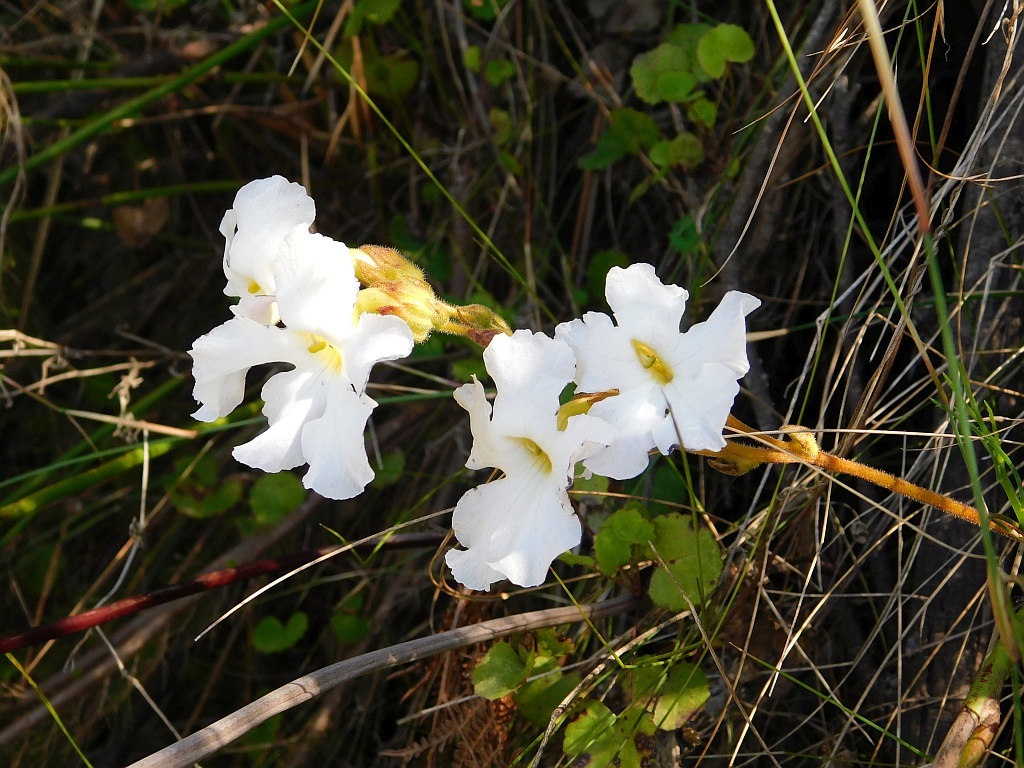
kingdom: Plantae
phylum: Tracheophyta
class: Magnoliopsida
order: Lamiales
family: Orobanchaceae
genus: Harveya
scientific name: Harveya capensis
